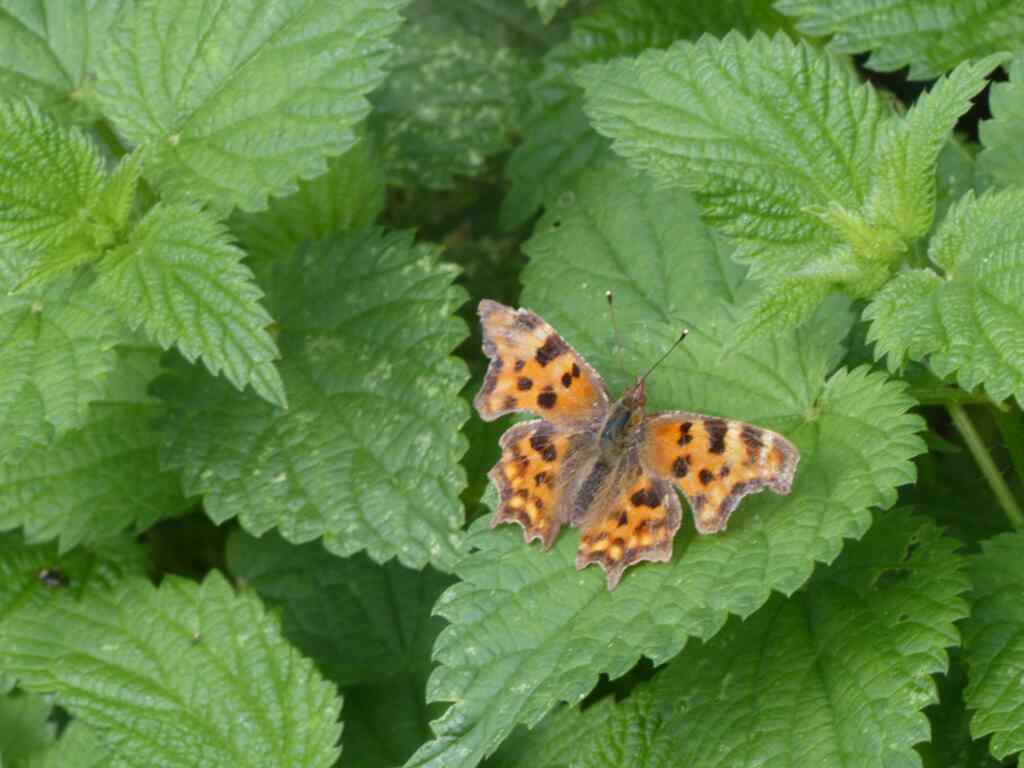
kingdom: Animalia
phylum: Arthropoda
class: Insecta
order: Lepidoptera
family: Nymphalidae
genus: Polygonia
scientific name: Polygonia c-album
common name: Comma
